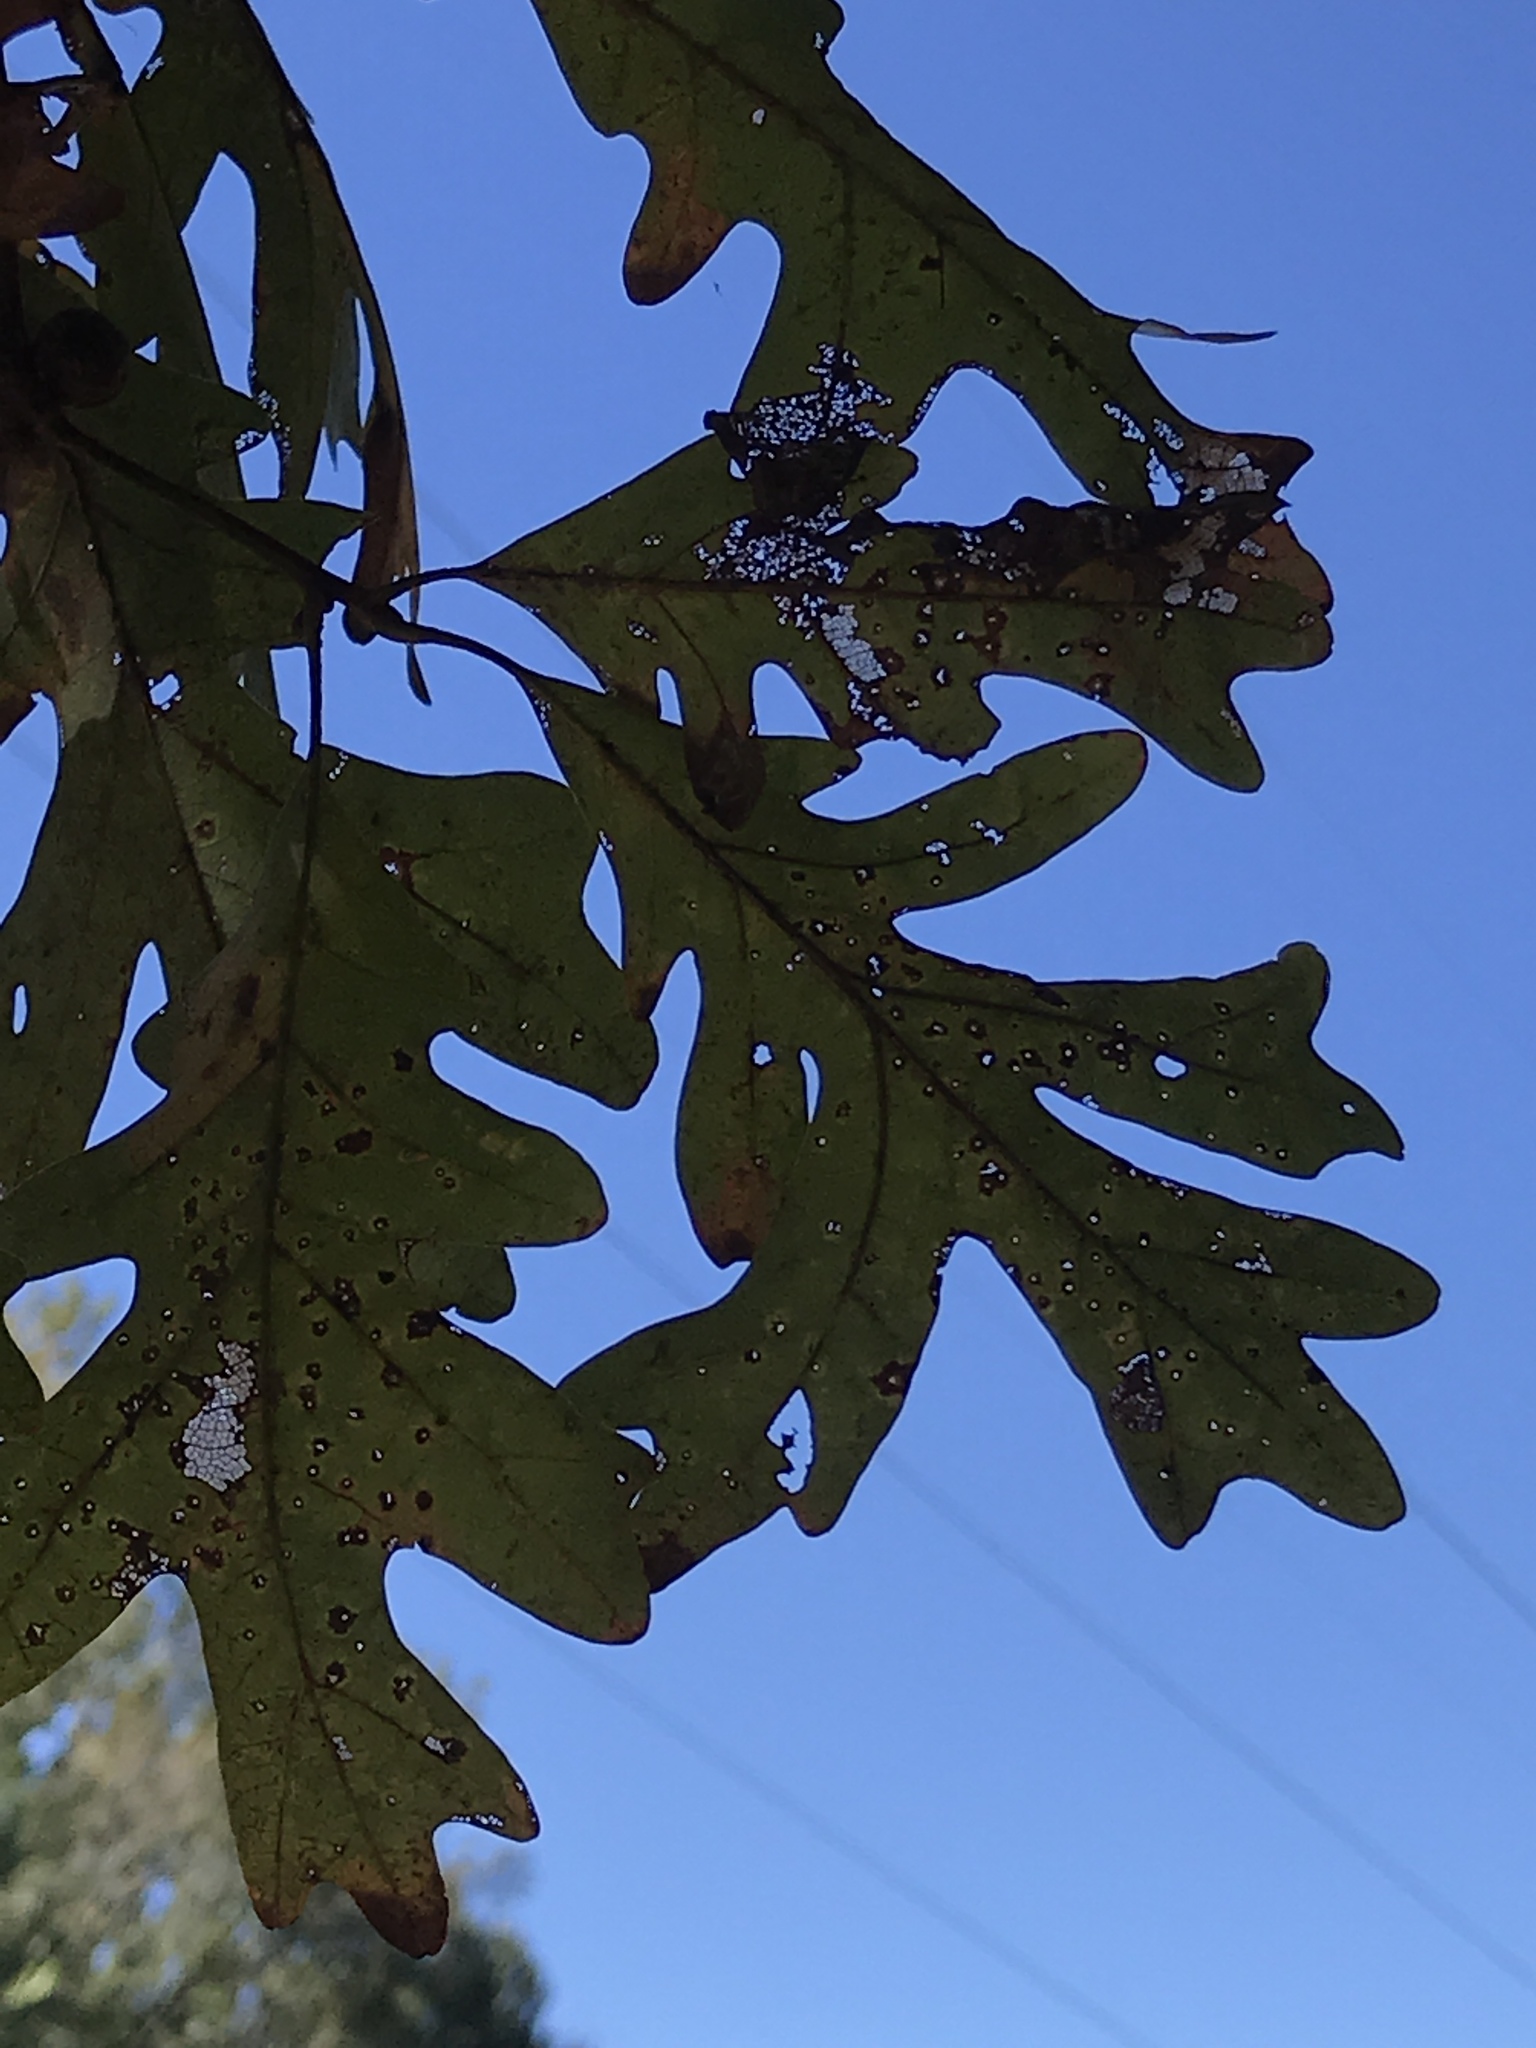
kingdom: Plantae
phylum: Tracheophyta
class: Magnoliopsida
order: Fagales
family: Fagaceae
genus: Quercus
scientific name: Quercus alba
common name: White oak
